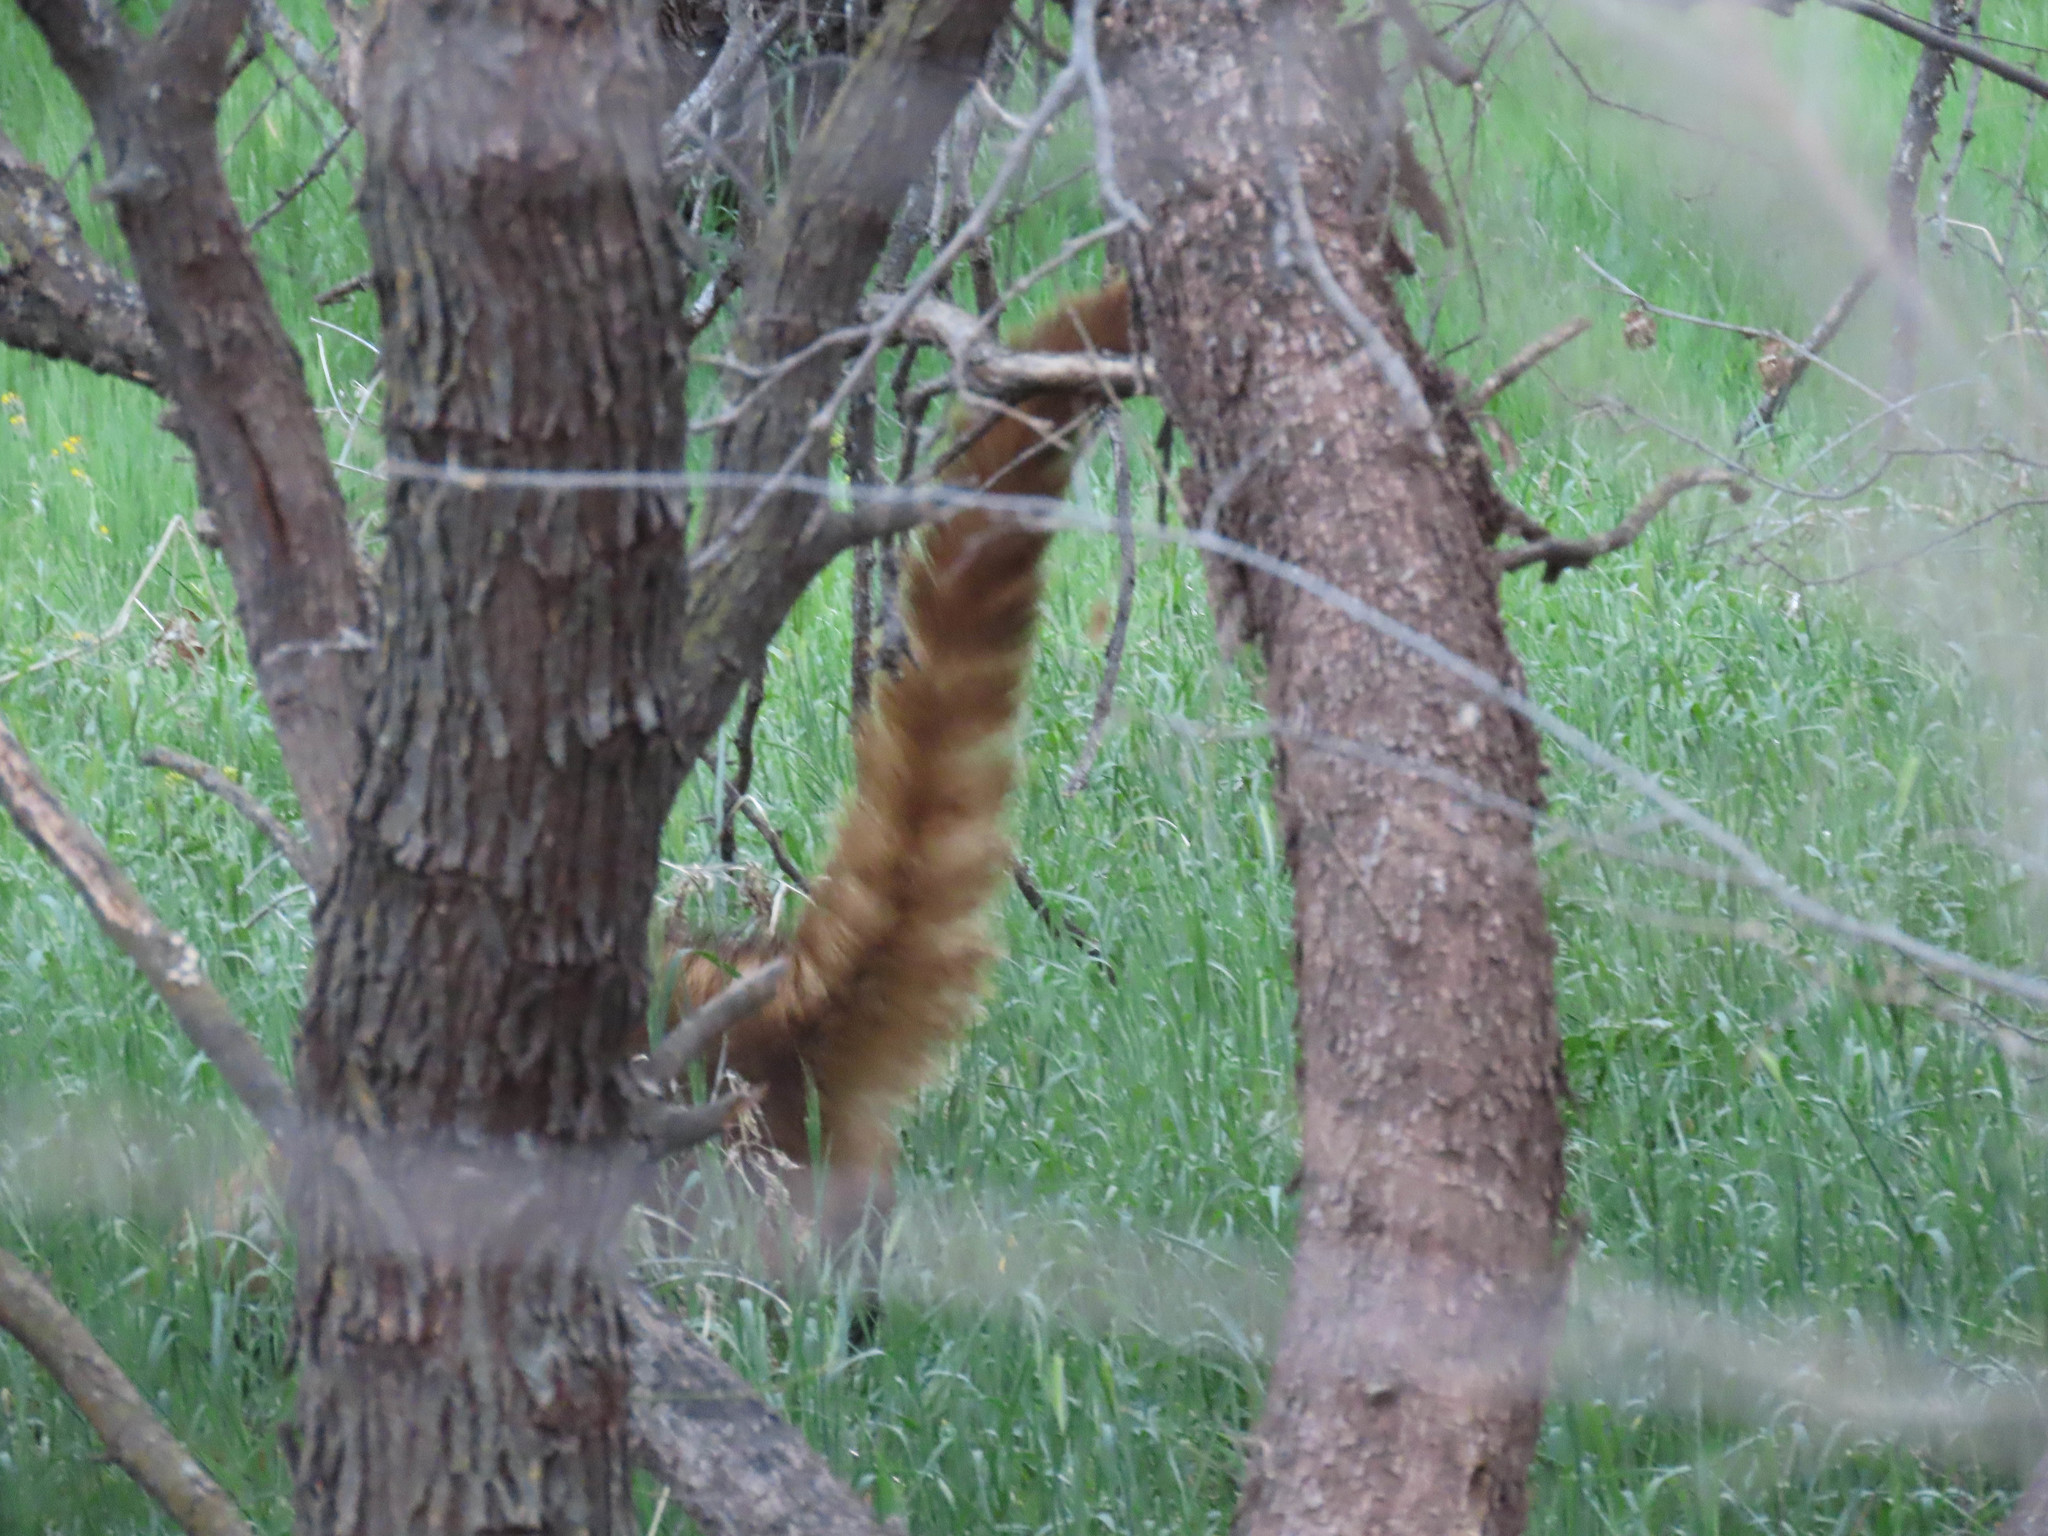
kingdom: Animalia
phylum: Chordata
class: Mammalia
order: Carnivora
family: Procyonidae
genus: Nasua
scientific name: Nasua narica
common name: White-nosed coati
